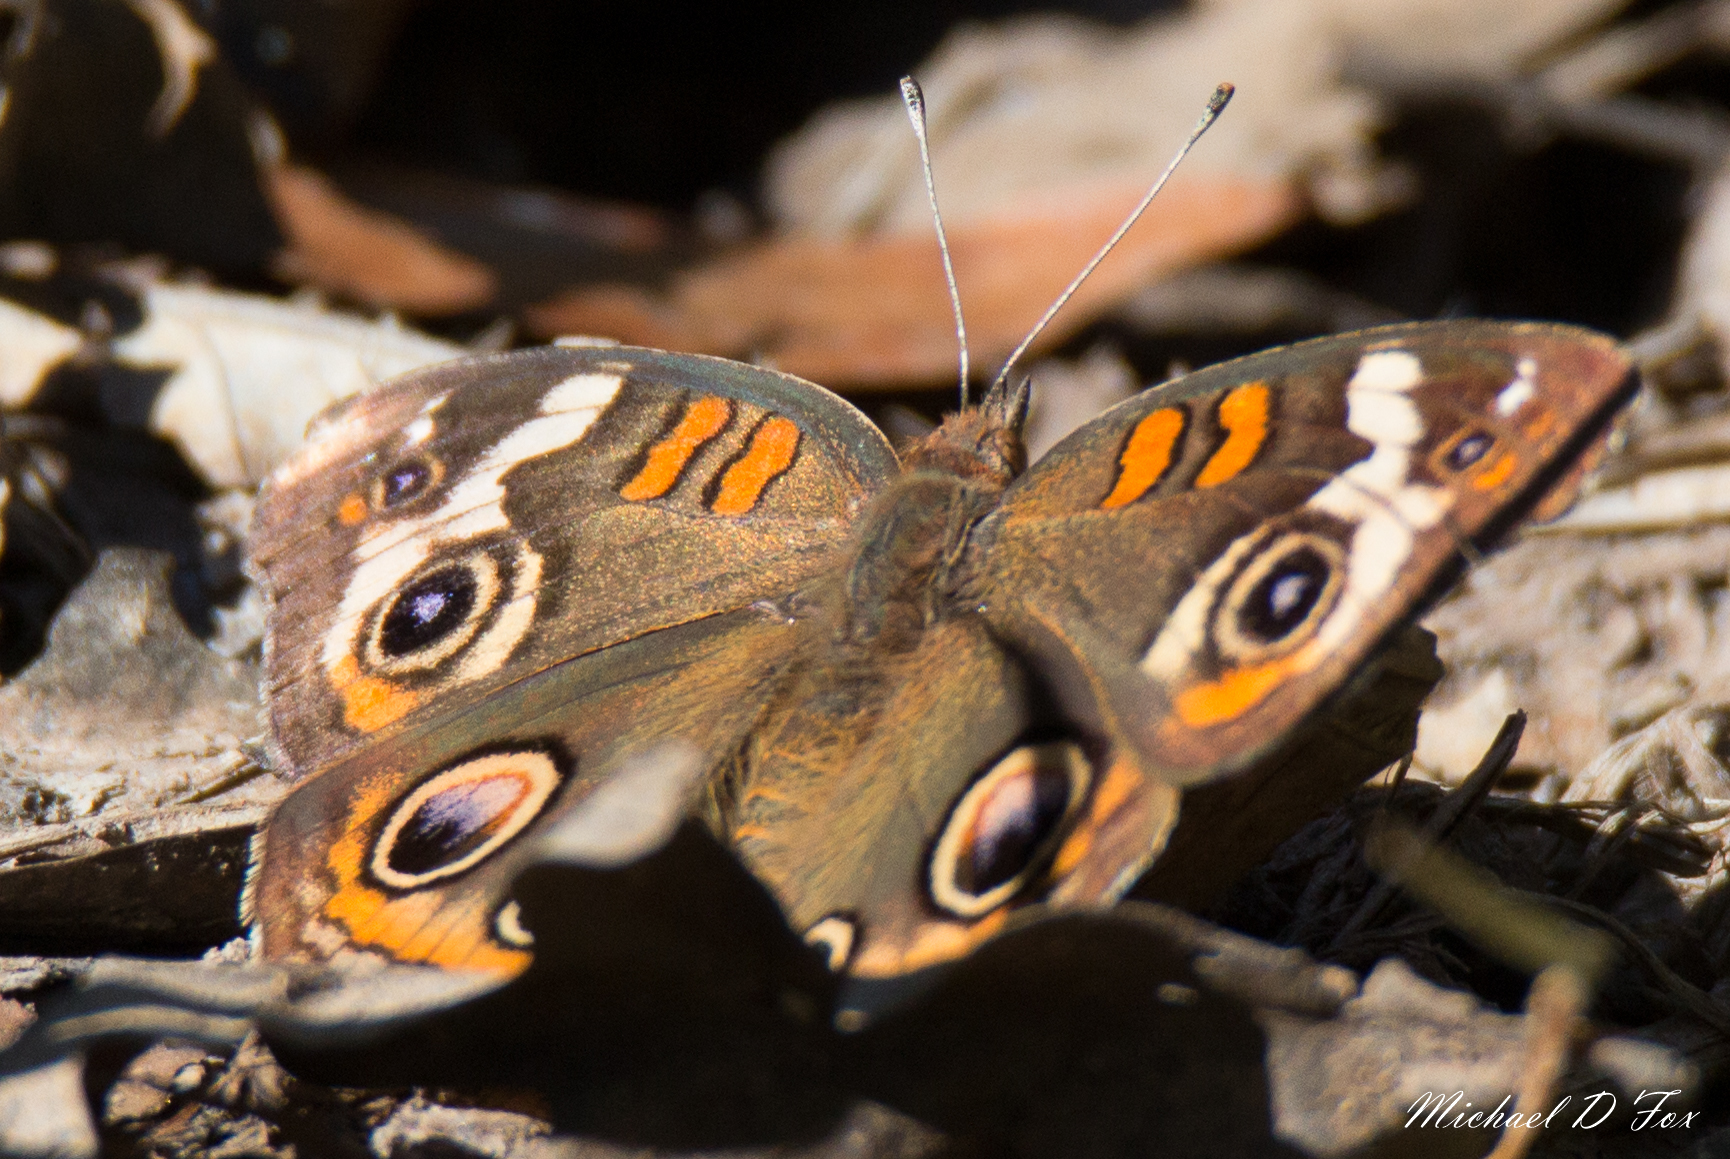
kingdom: Animalia
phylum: Arthropoda
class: Insecta
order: Lepidoptera
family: Nymphalidae
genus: Junonia
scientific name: Junonia coenia
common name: Common buckeye
